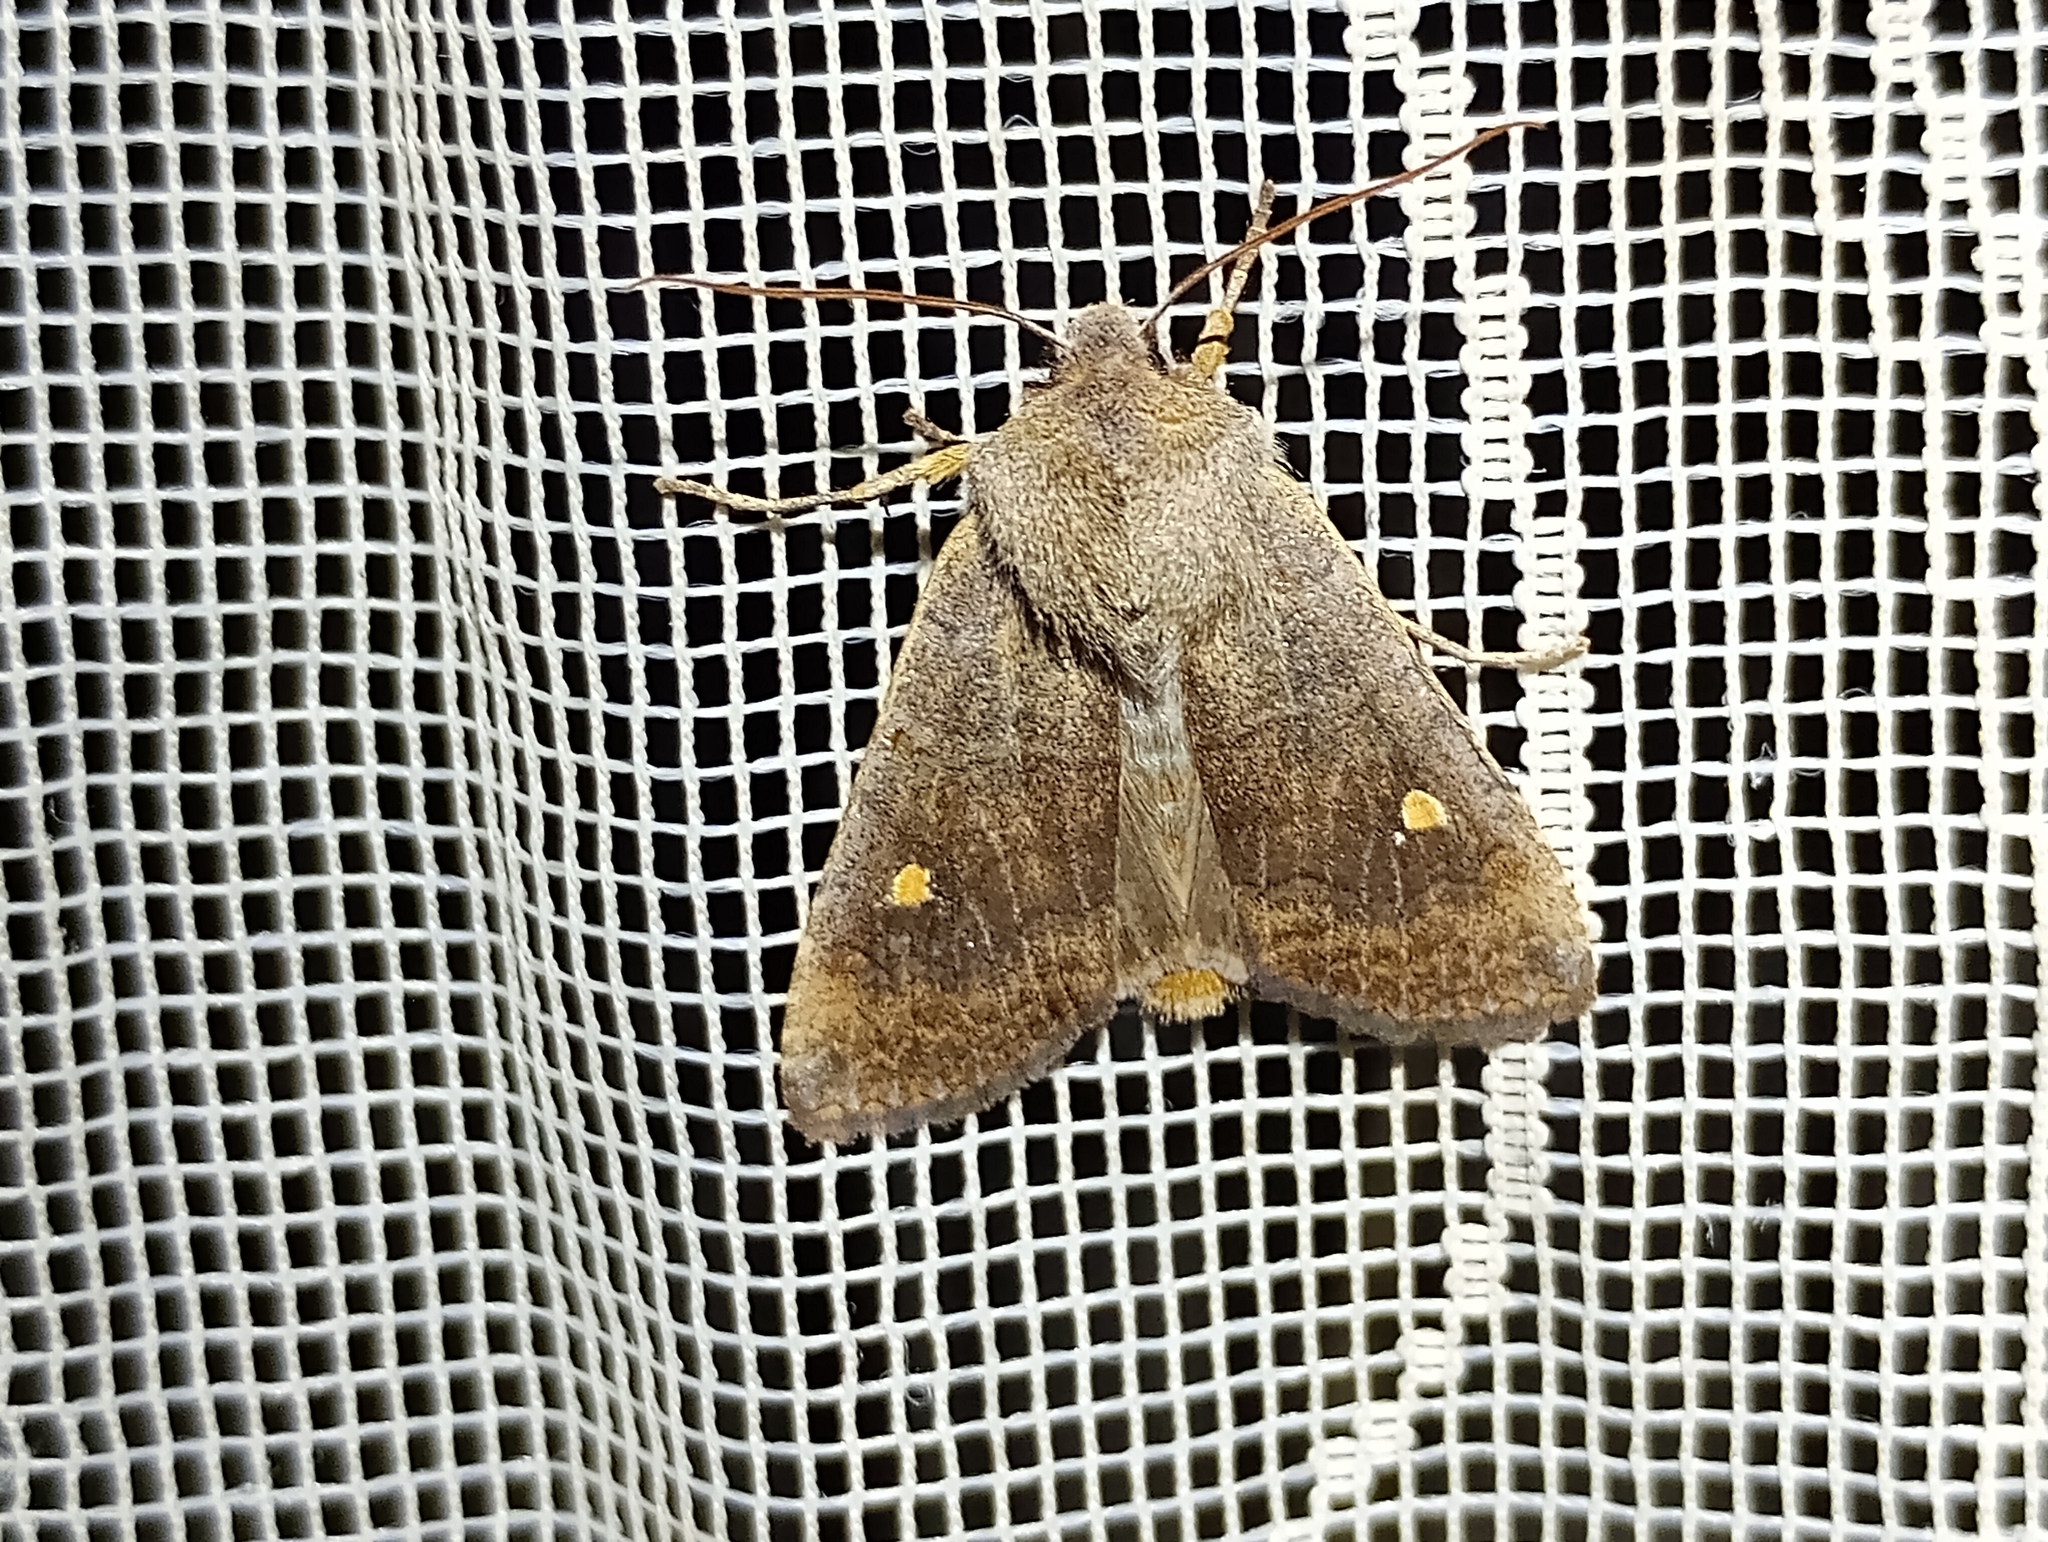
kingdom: Animalia
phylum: Arthropoda
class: Insecta
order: Lepidoptera
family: Noctuidae
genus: Eupsilia
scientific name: Eupsilia transversa
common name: Satellite
